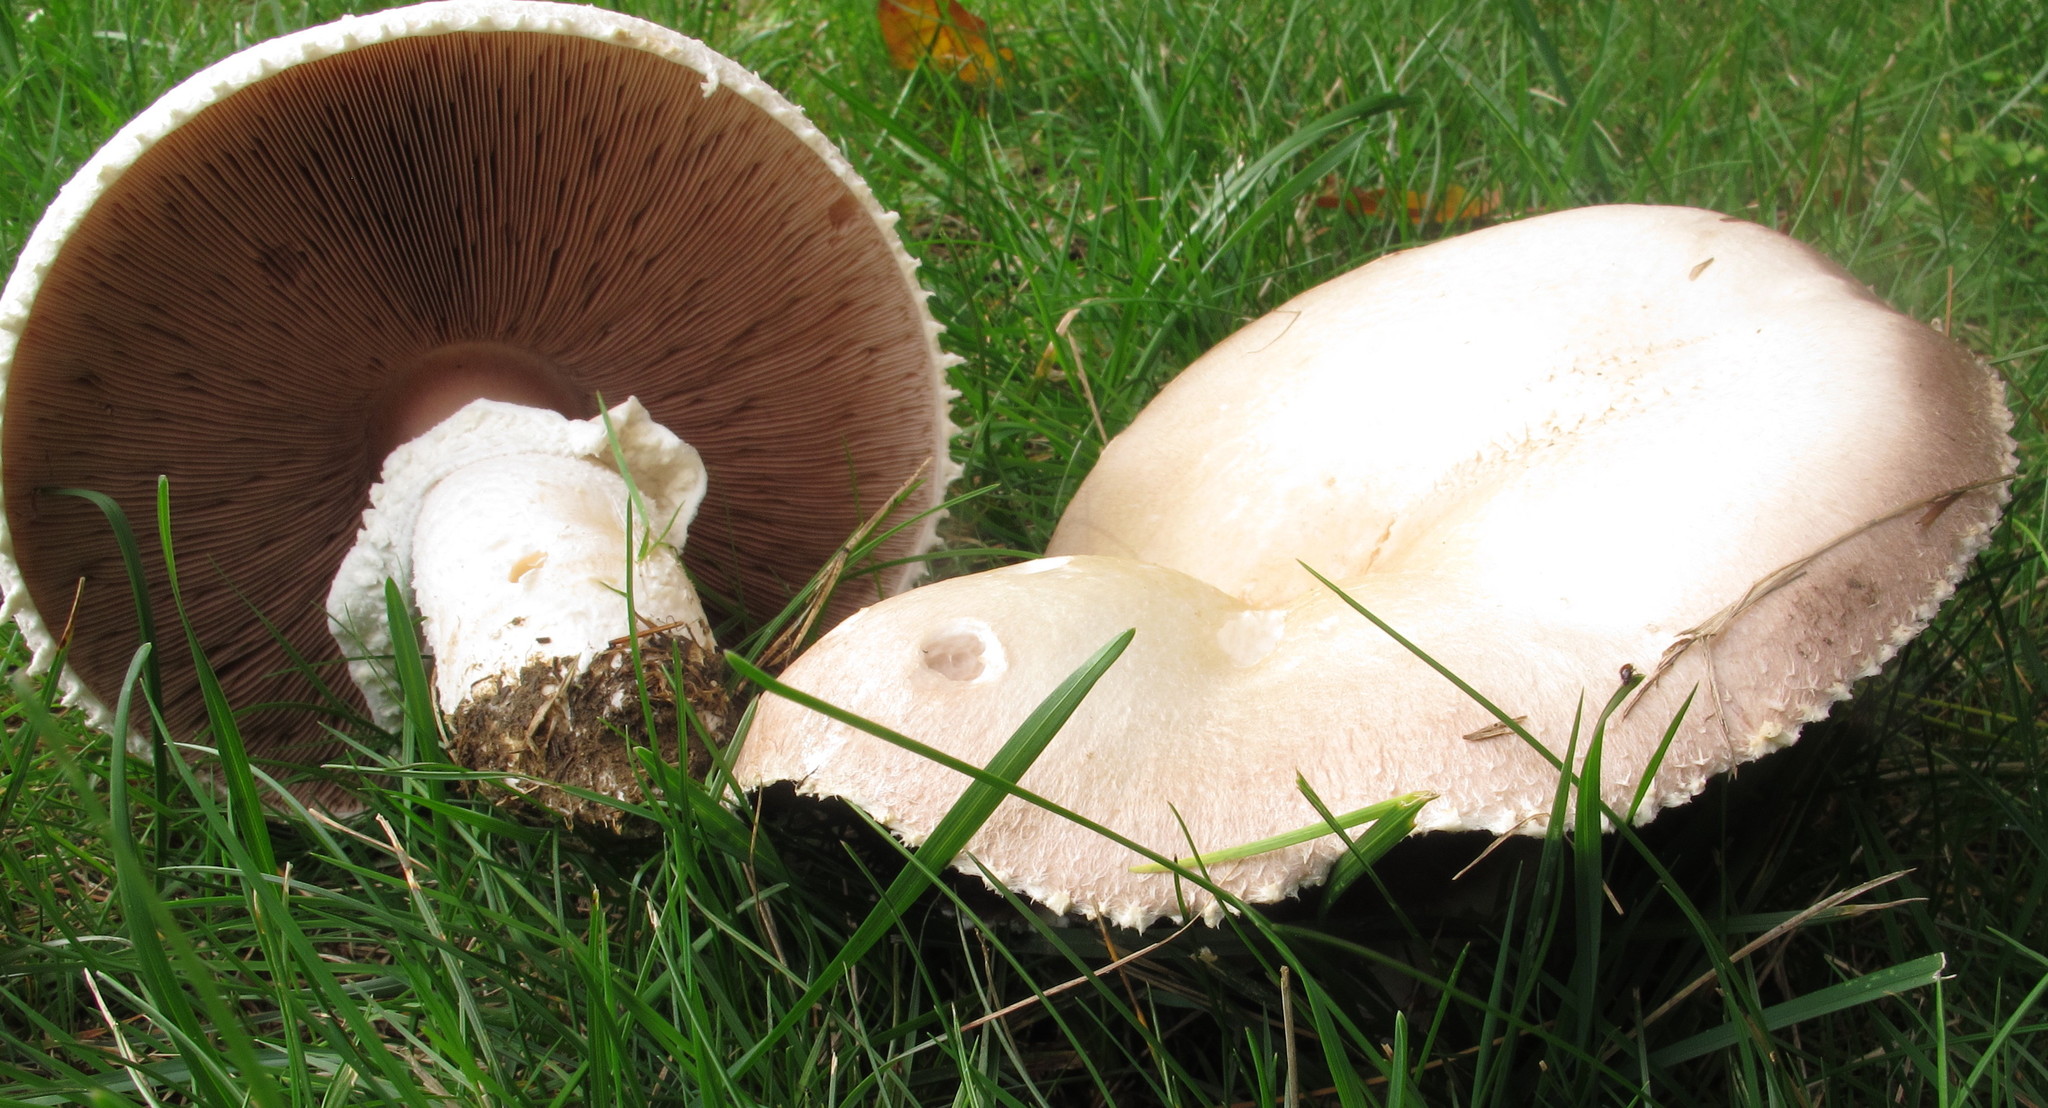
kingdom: Fungi
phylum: Basidiomycota
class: Agaricomycetes
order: Agaricales
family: Agaricaceae
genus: Agaricus
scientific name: Agaricus arvensis
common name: Horse mushroom
